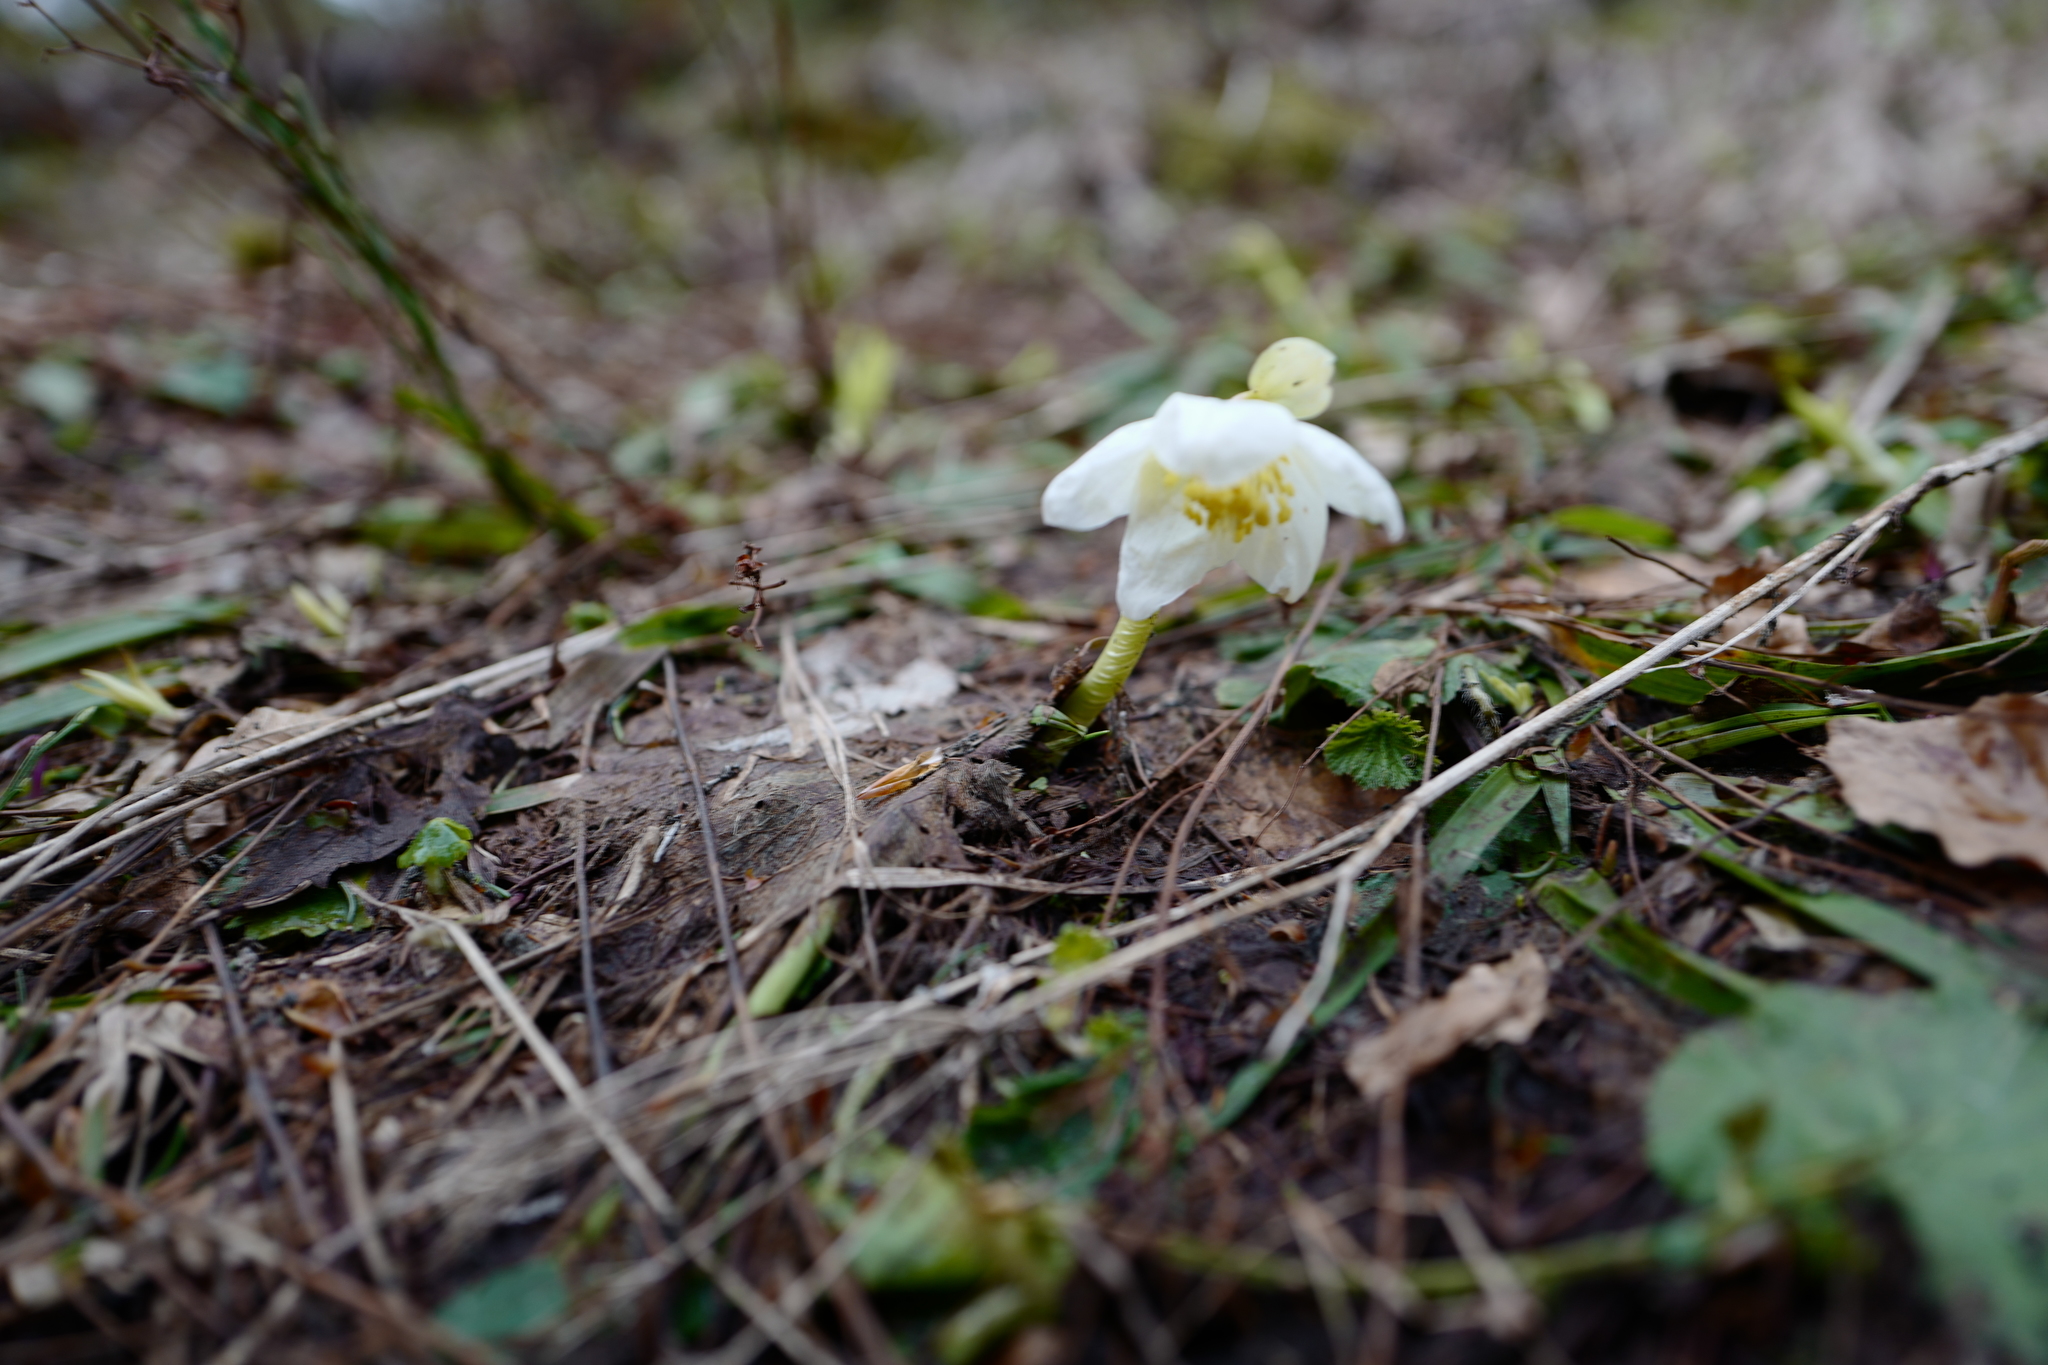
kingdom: Plantae
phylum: Tracheophyta
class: Magnoliopsida
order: Ranunculales
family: Ranunculaceae
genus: Helleborus
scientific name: Helleborus niger
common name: Black hellebore
